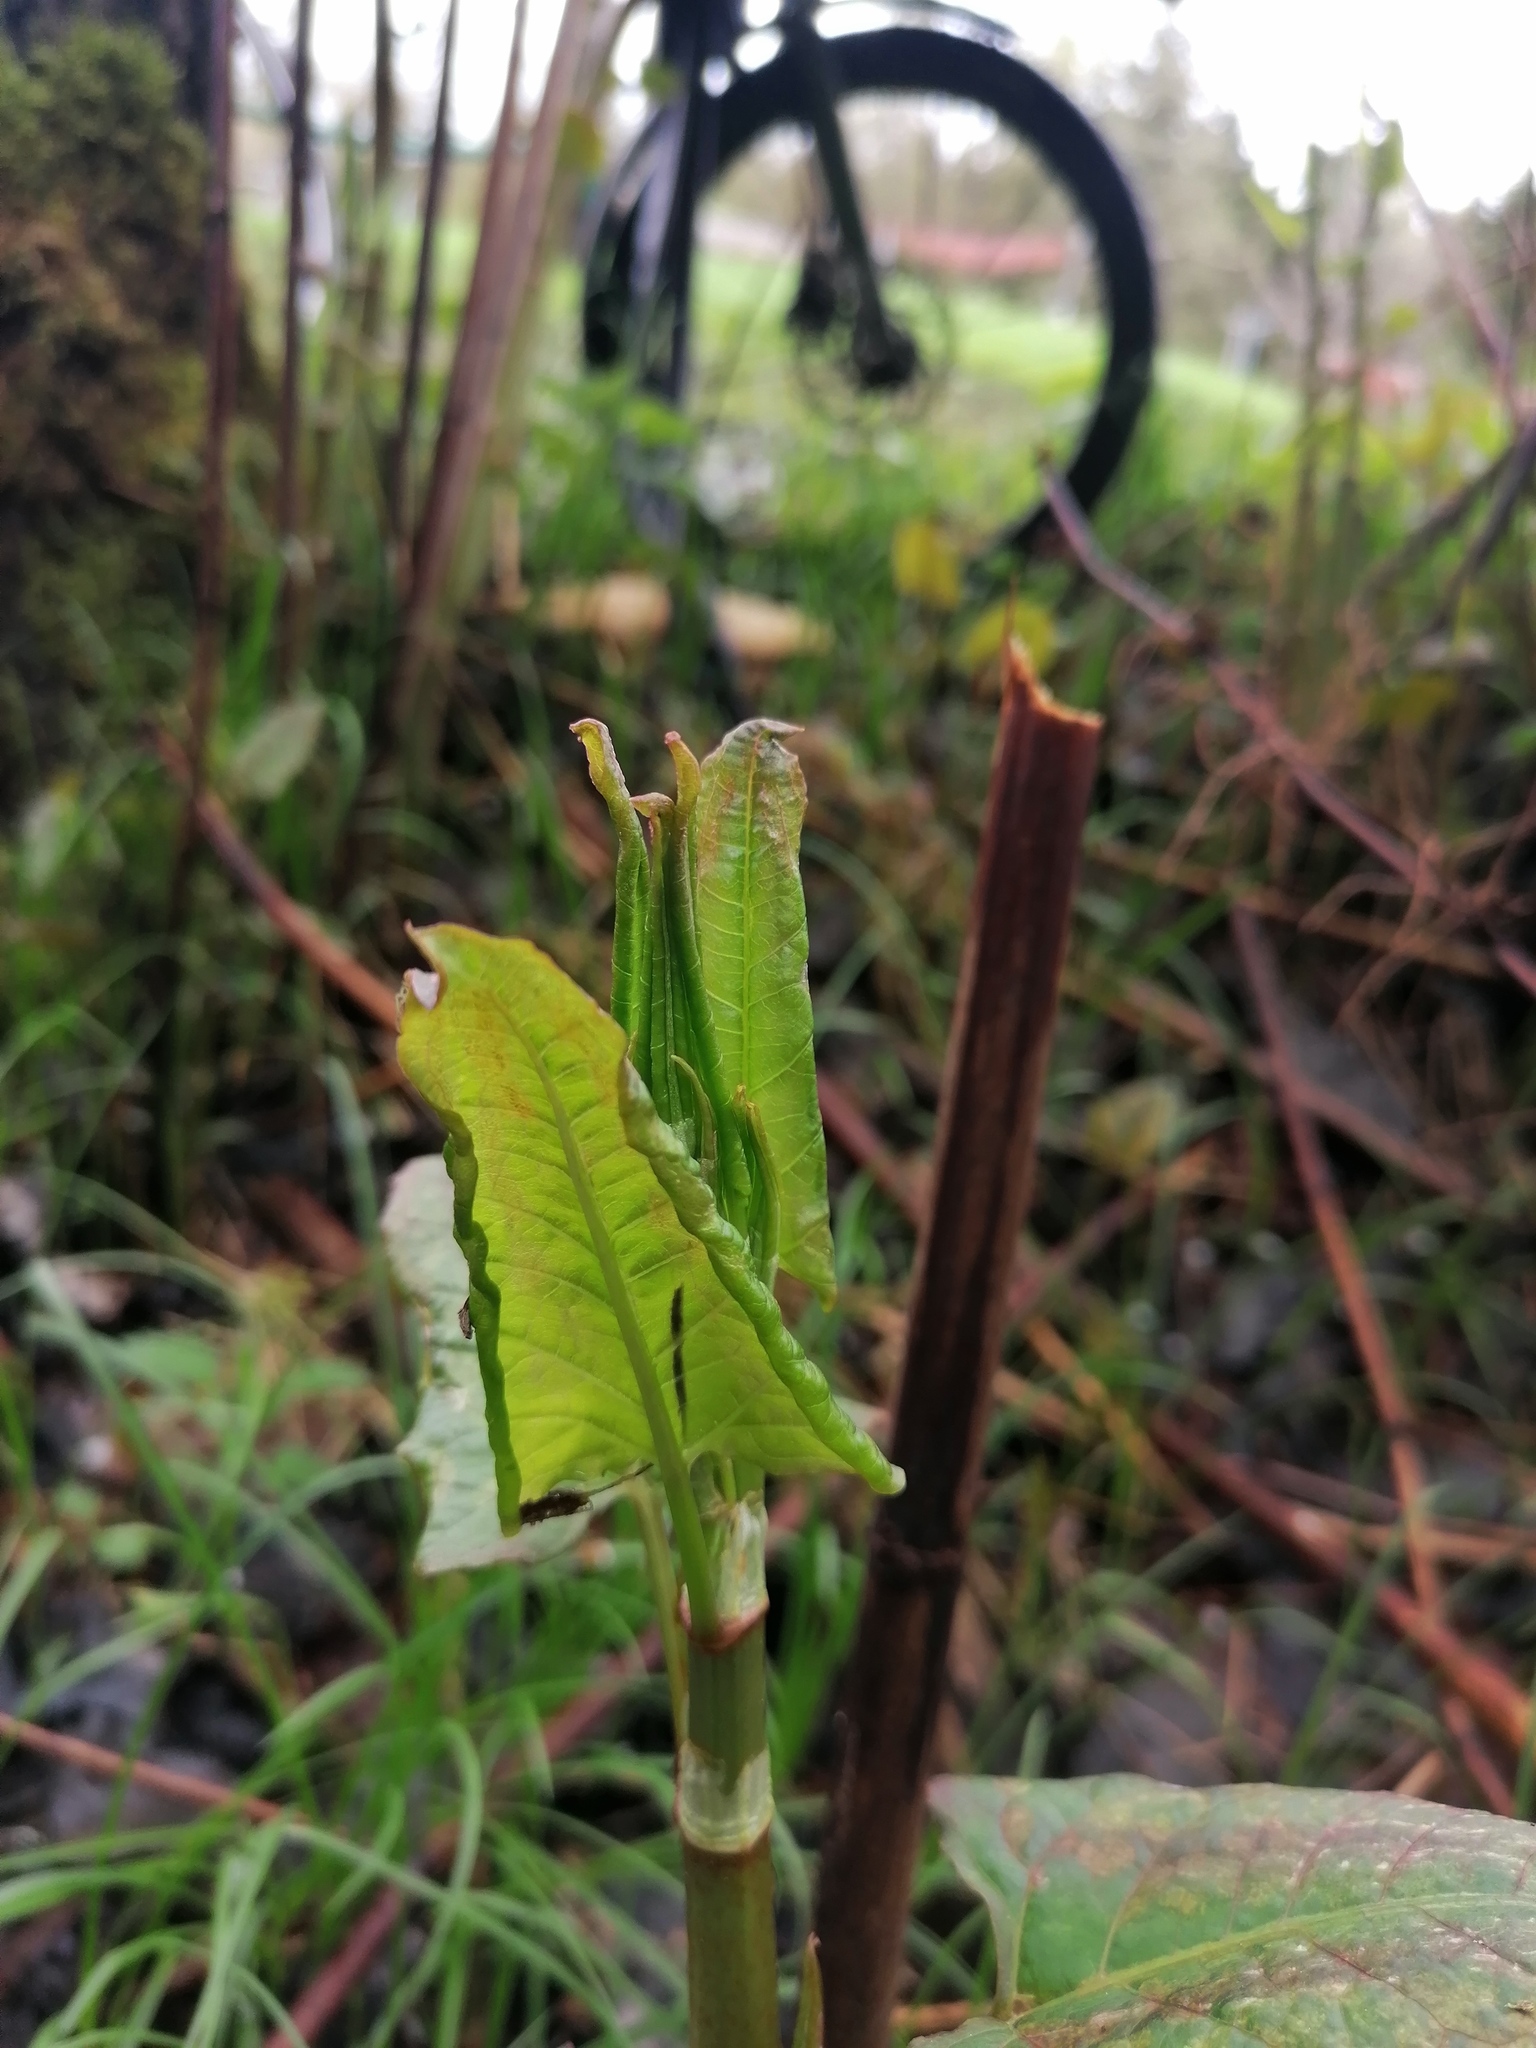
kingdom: Plantae
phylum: Tracheophyta
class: Magnoliopsida
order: Caryophyllales
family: Polygonaceae
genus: Reynoutria
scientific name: Reynoutria bohemica
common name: Bohemian knotweed
